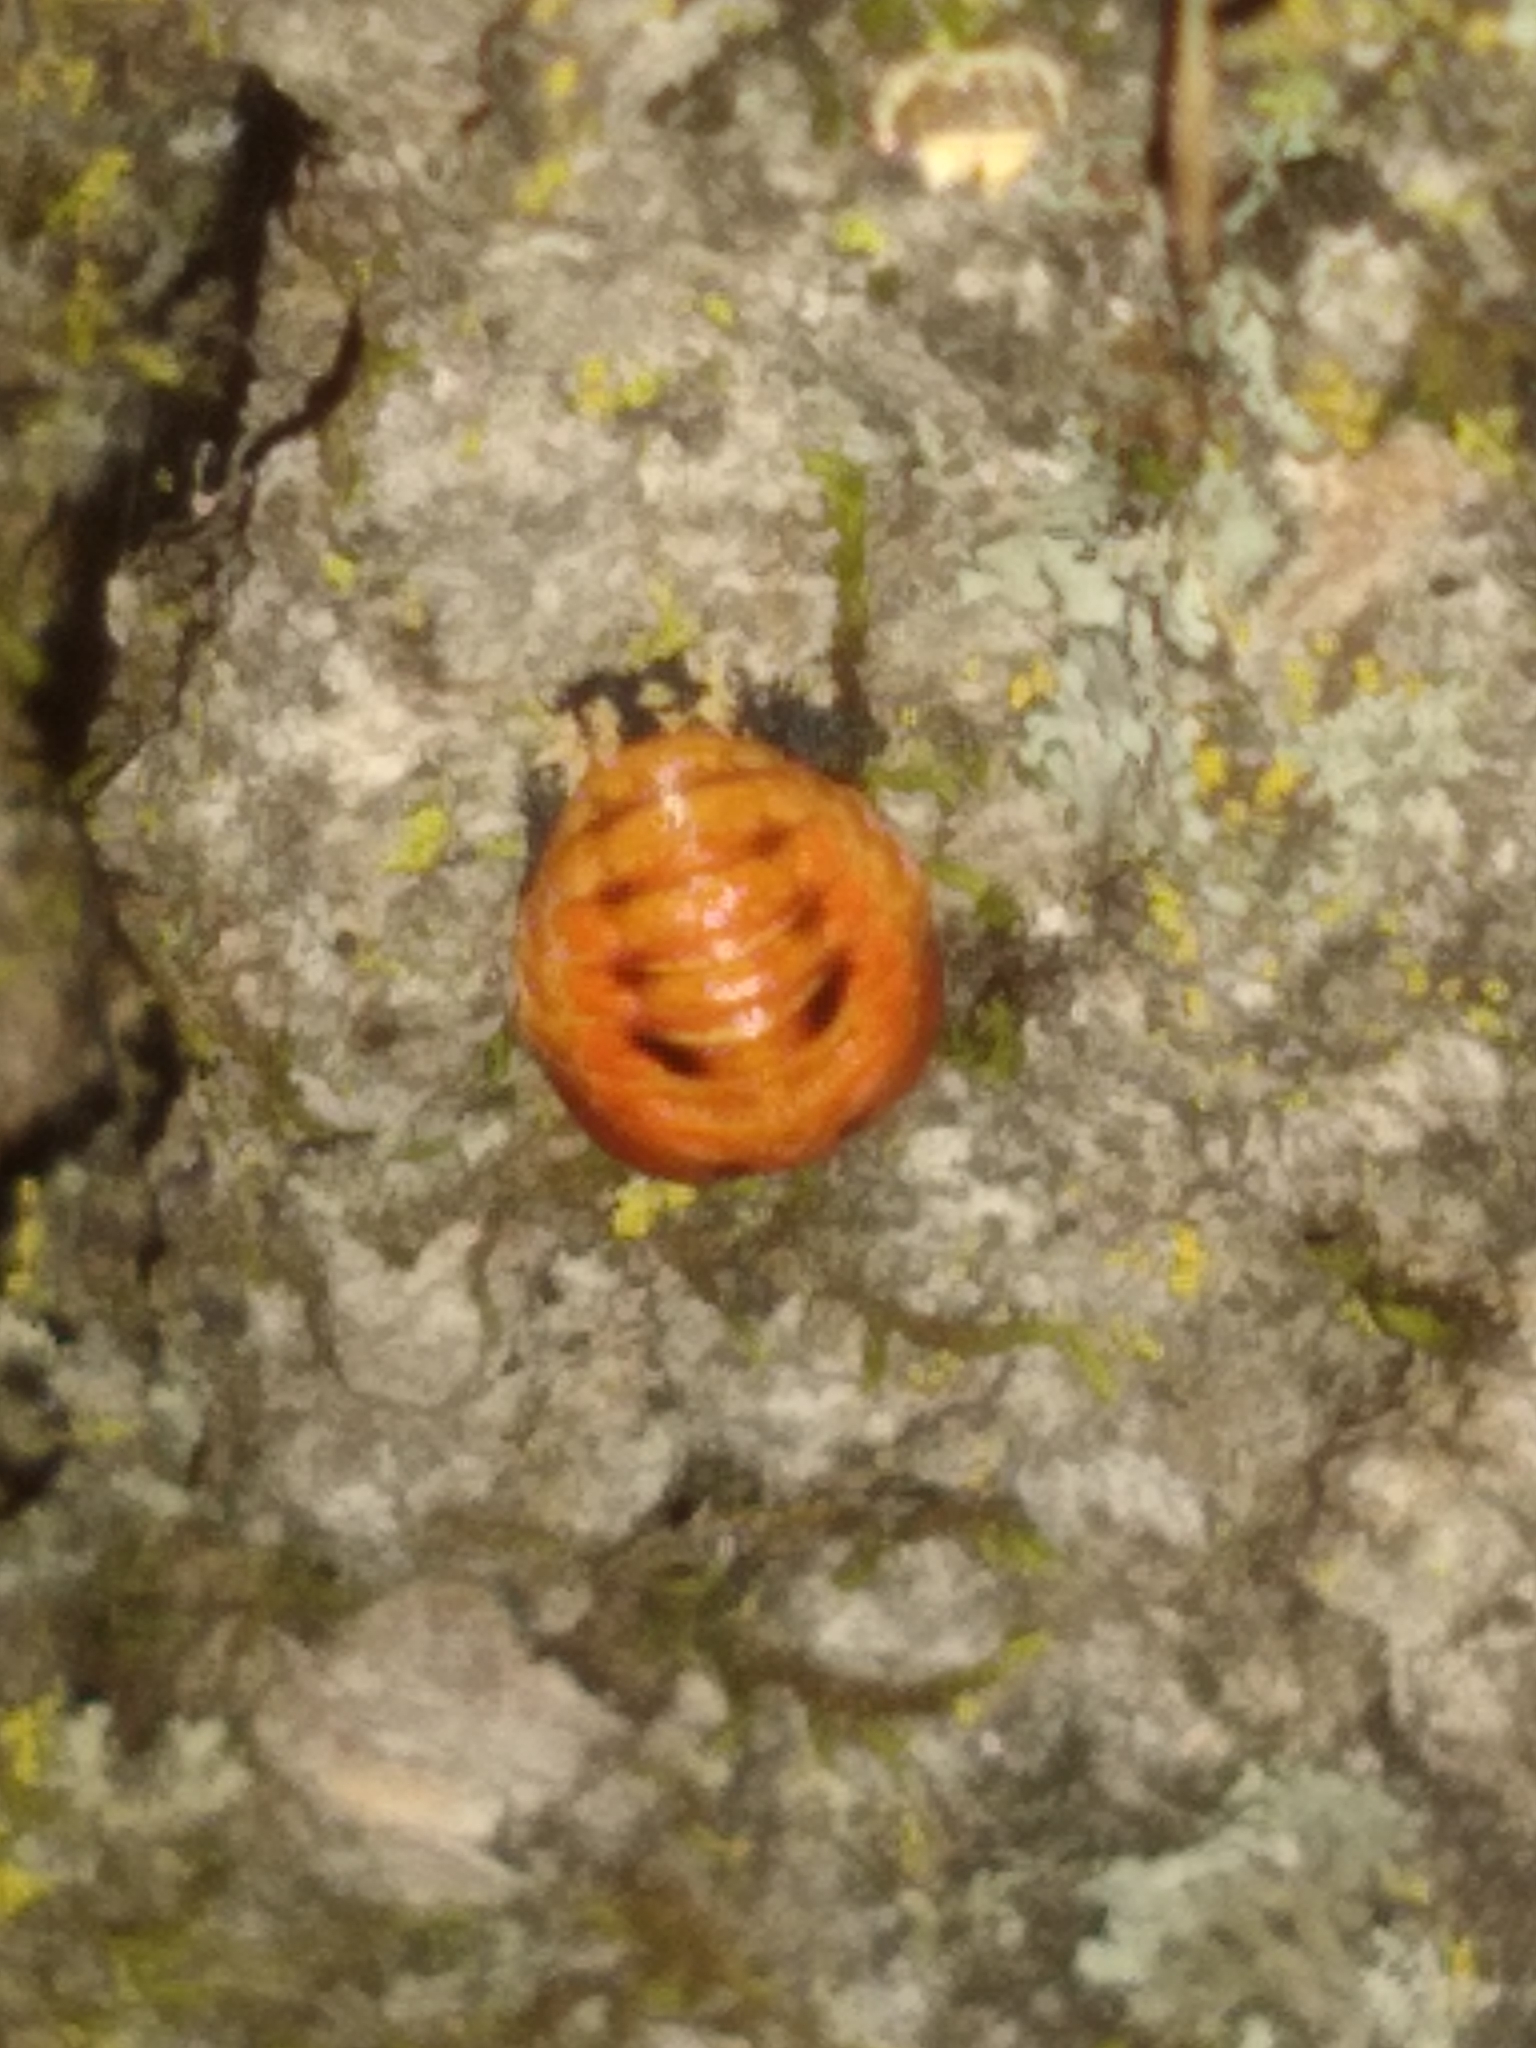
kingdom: Animalia
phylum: Arthropoda
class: Insecta
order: Coleoptera
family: Coccinellidae
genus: Harmonia
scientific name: Harmonia axyridis
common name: Harlequin ladybird
